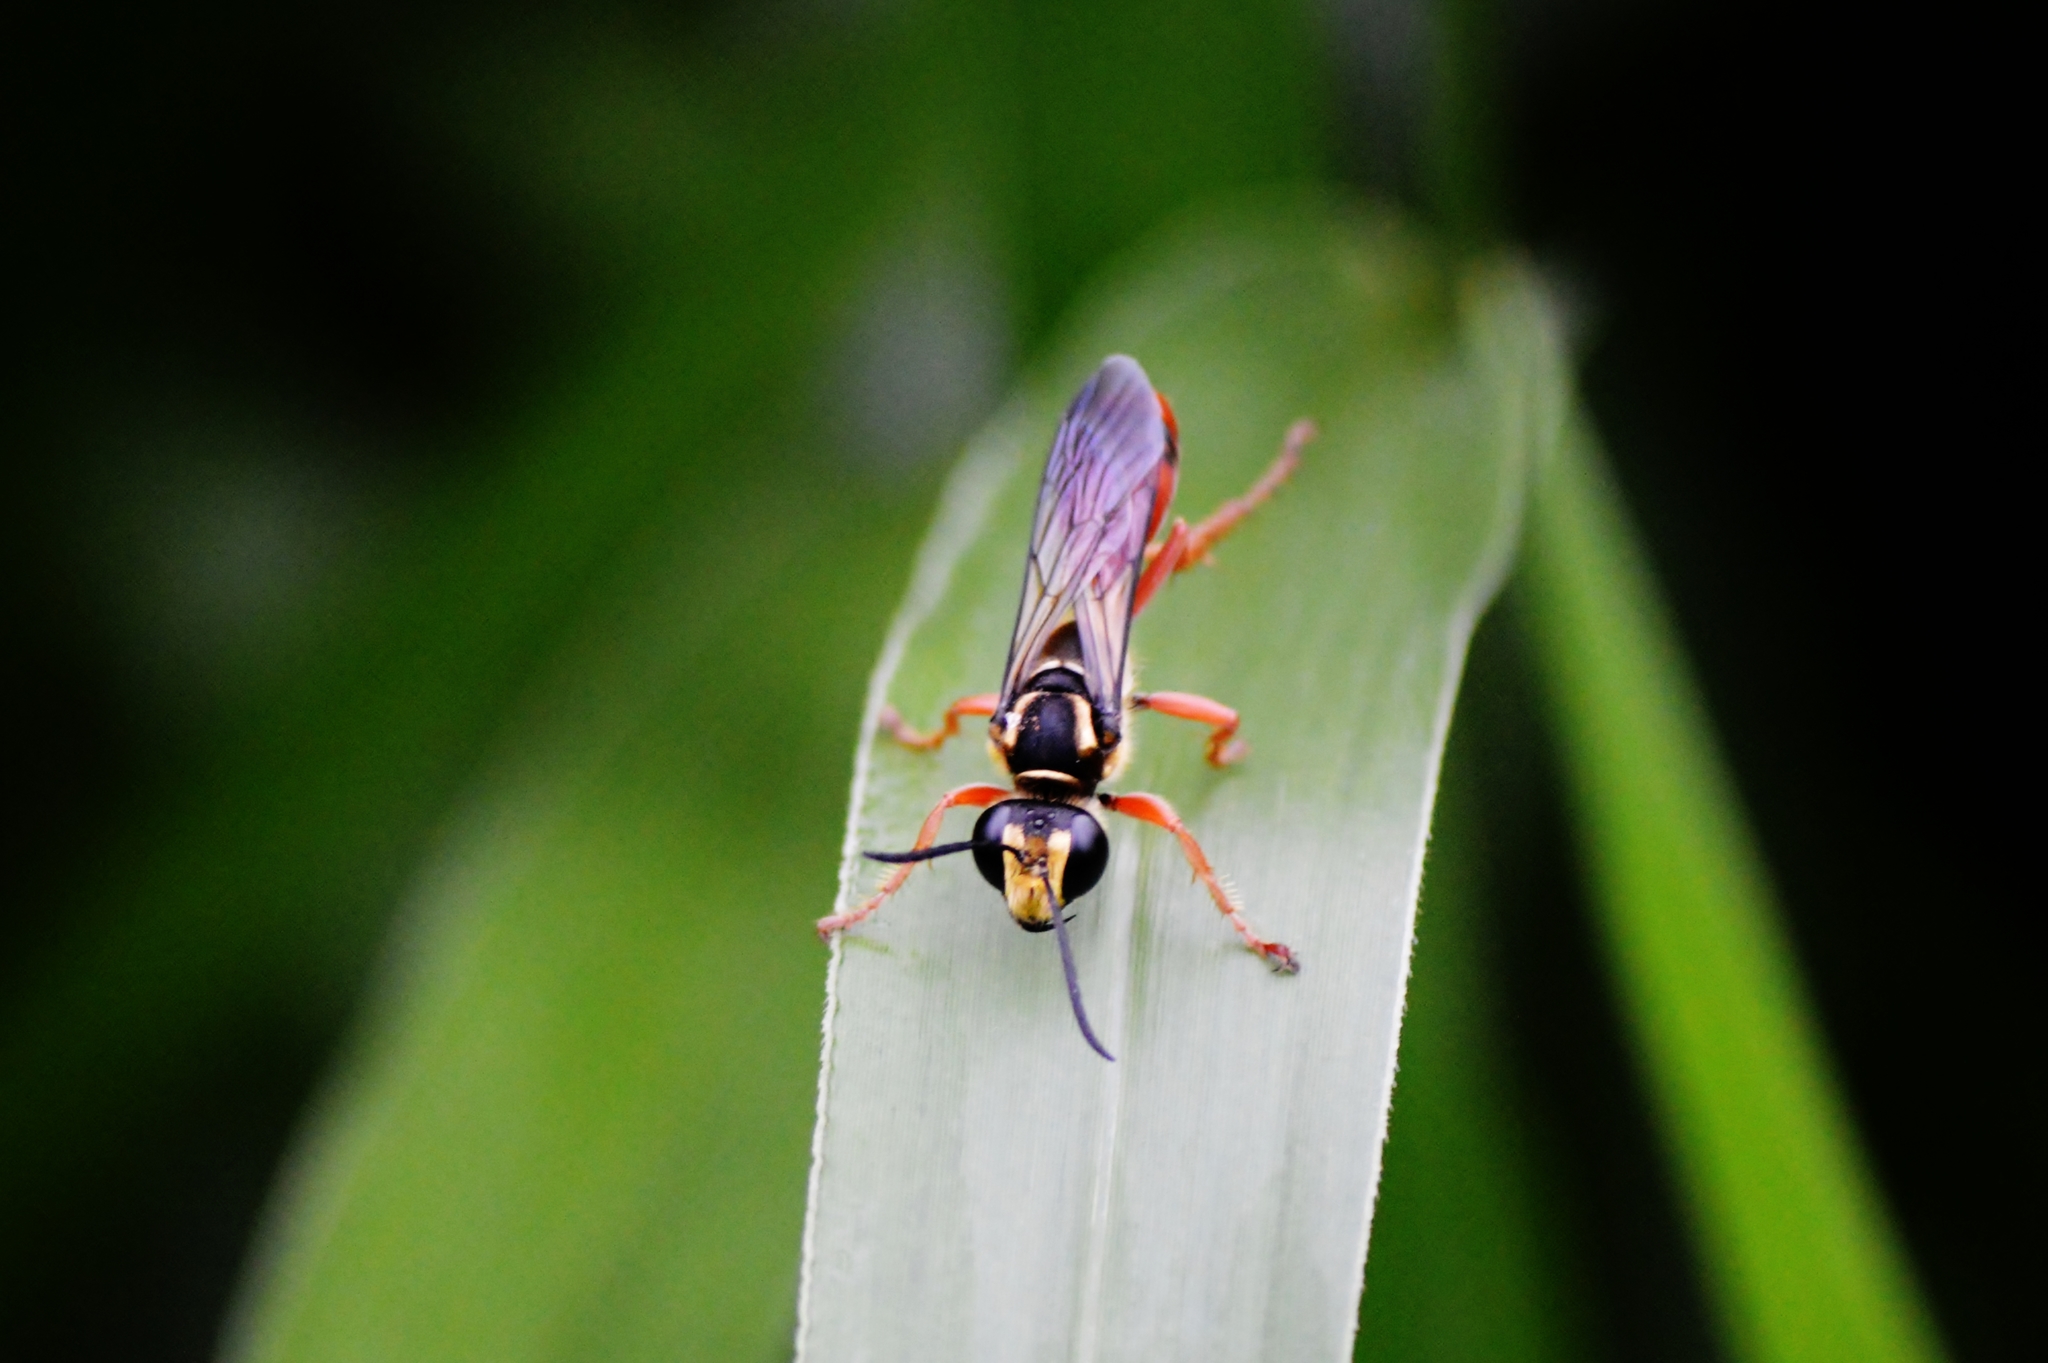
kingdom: Animalia
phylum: Arthropoda
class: Insecta
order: Hymenoptera
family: Sphecidae
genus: Sphex
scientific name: Sphex dorsalis
